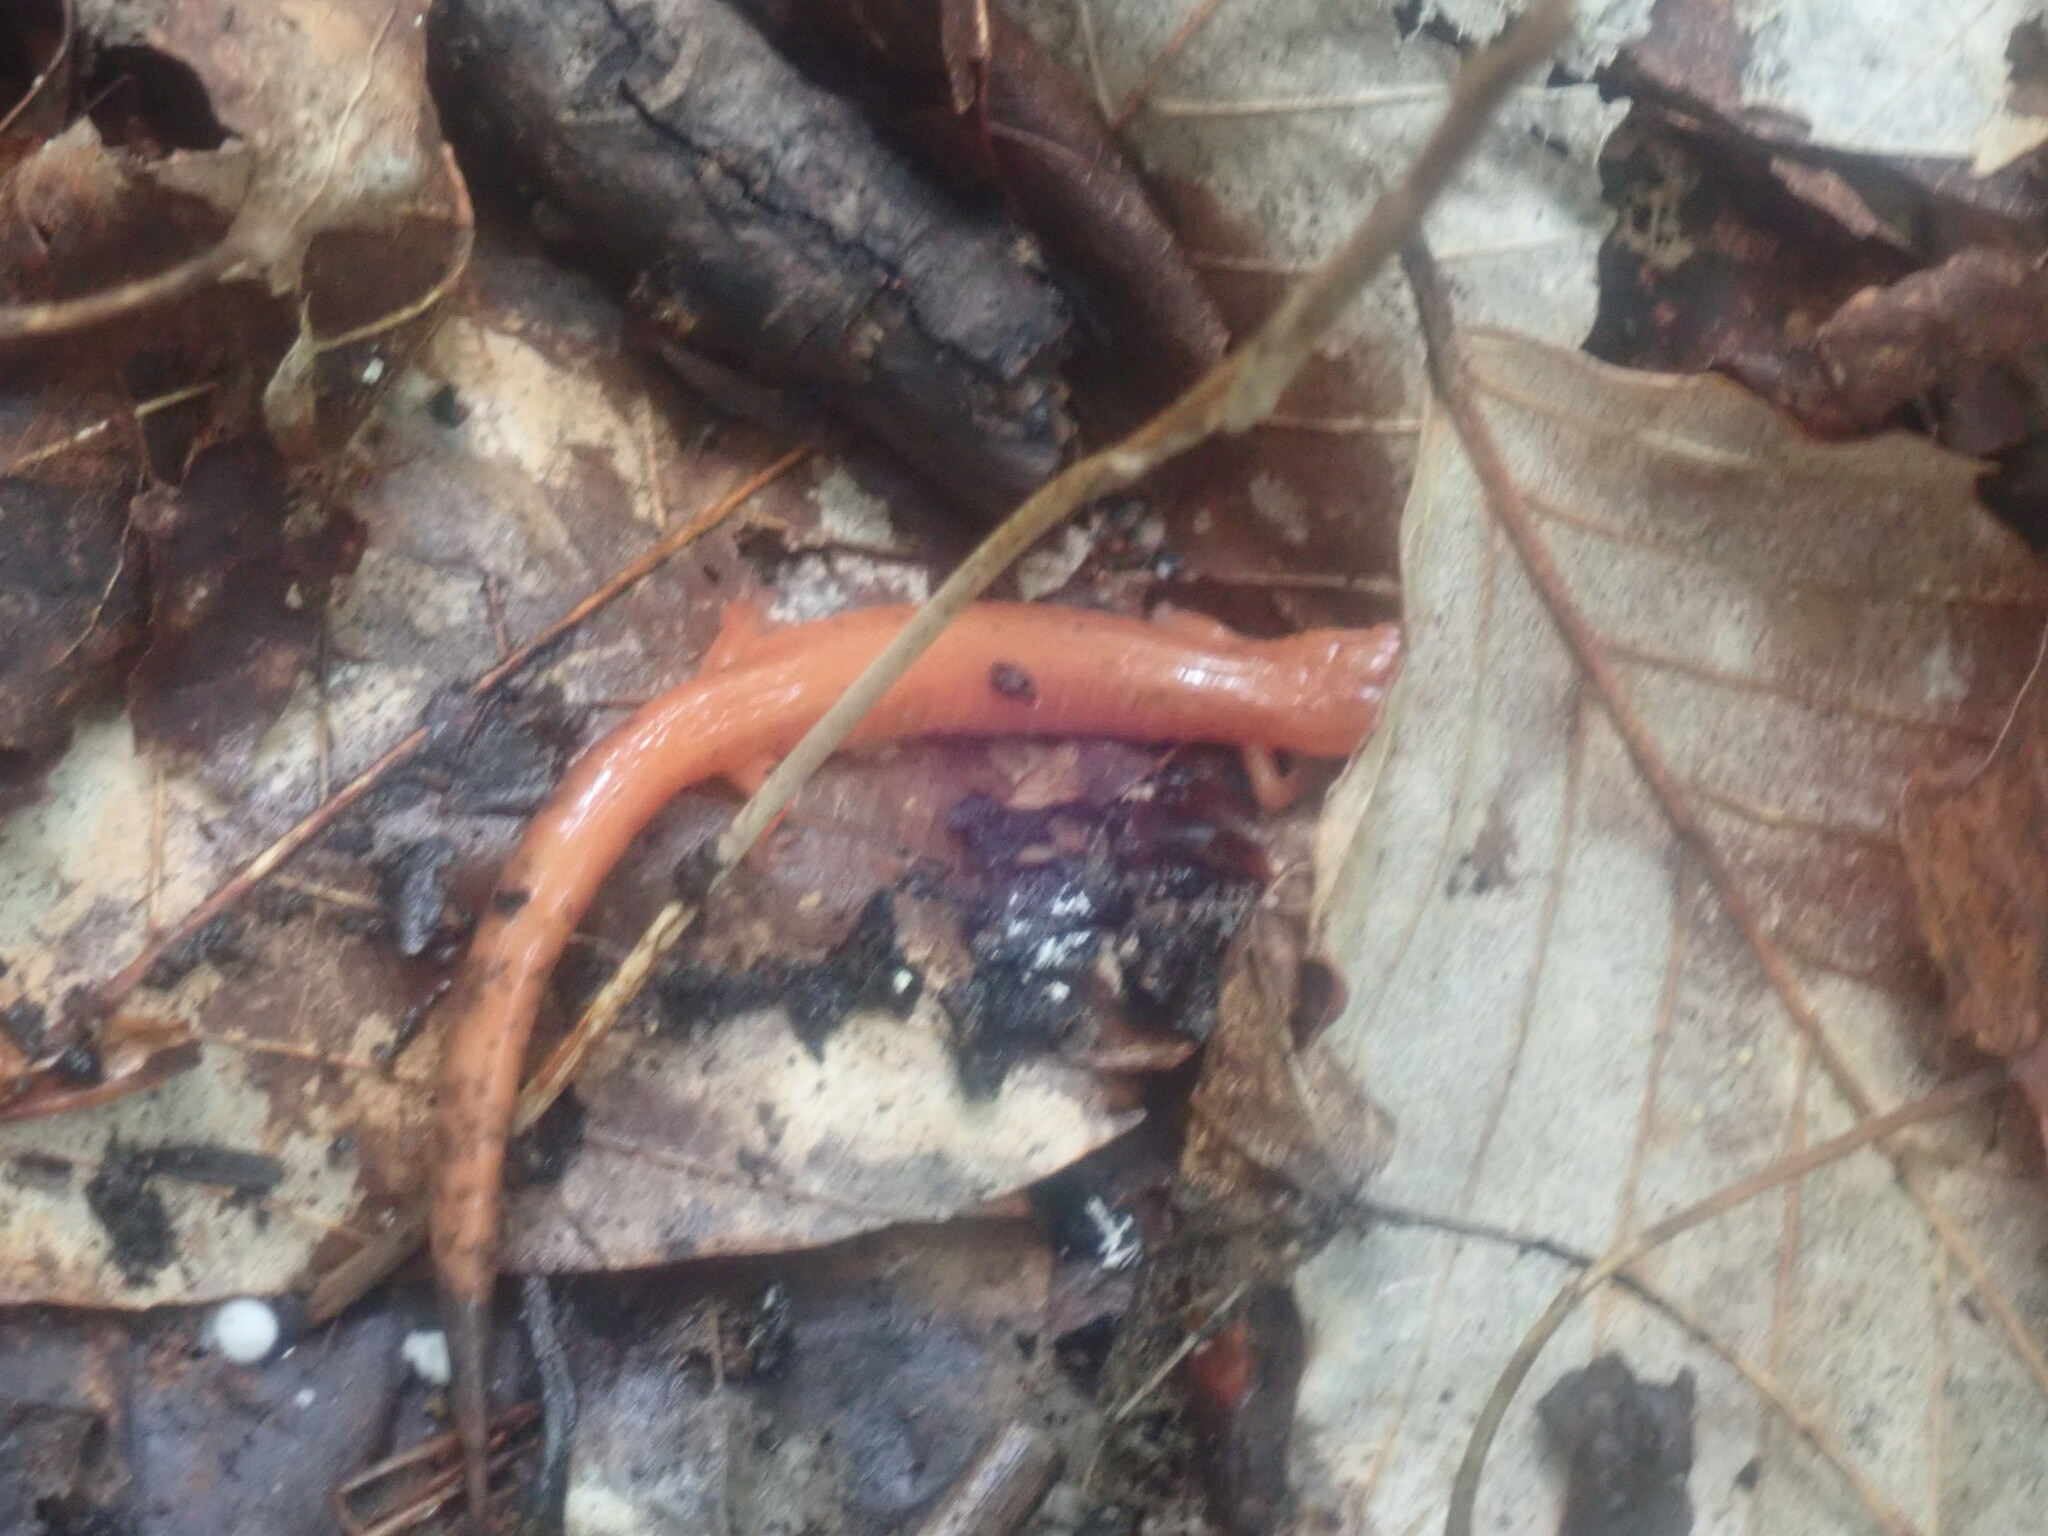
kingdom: Animalia
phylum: Chordata
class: Amphibia
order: Caudata
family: Plethodontidae
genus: Plethodon
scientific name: Plethodon cinereus
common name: Redback salamander
